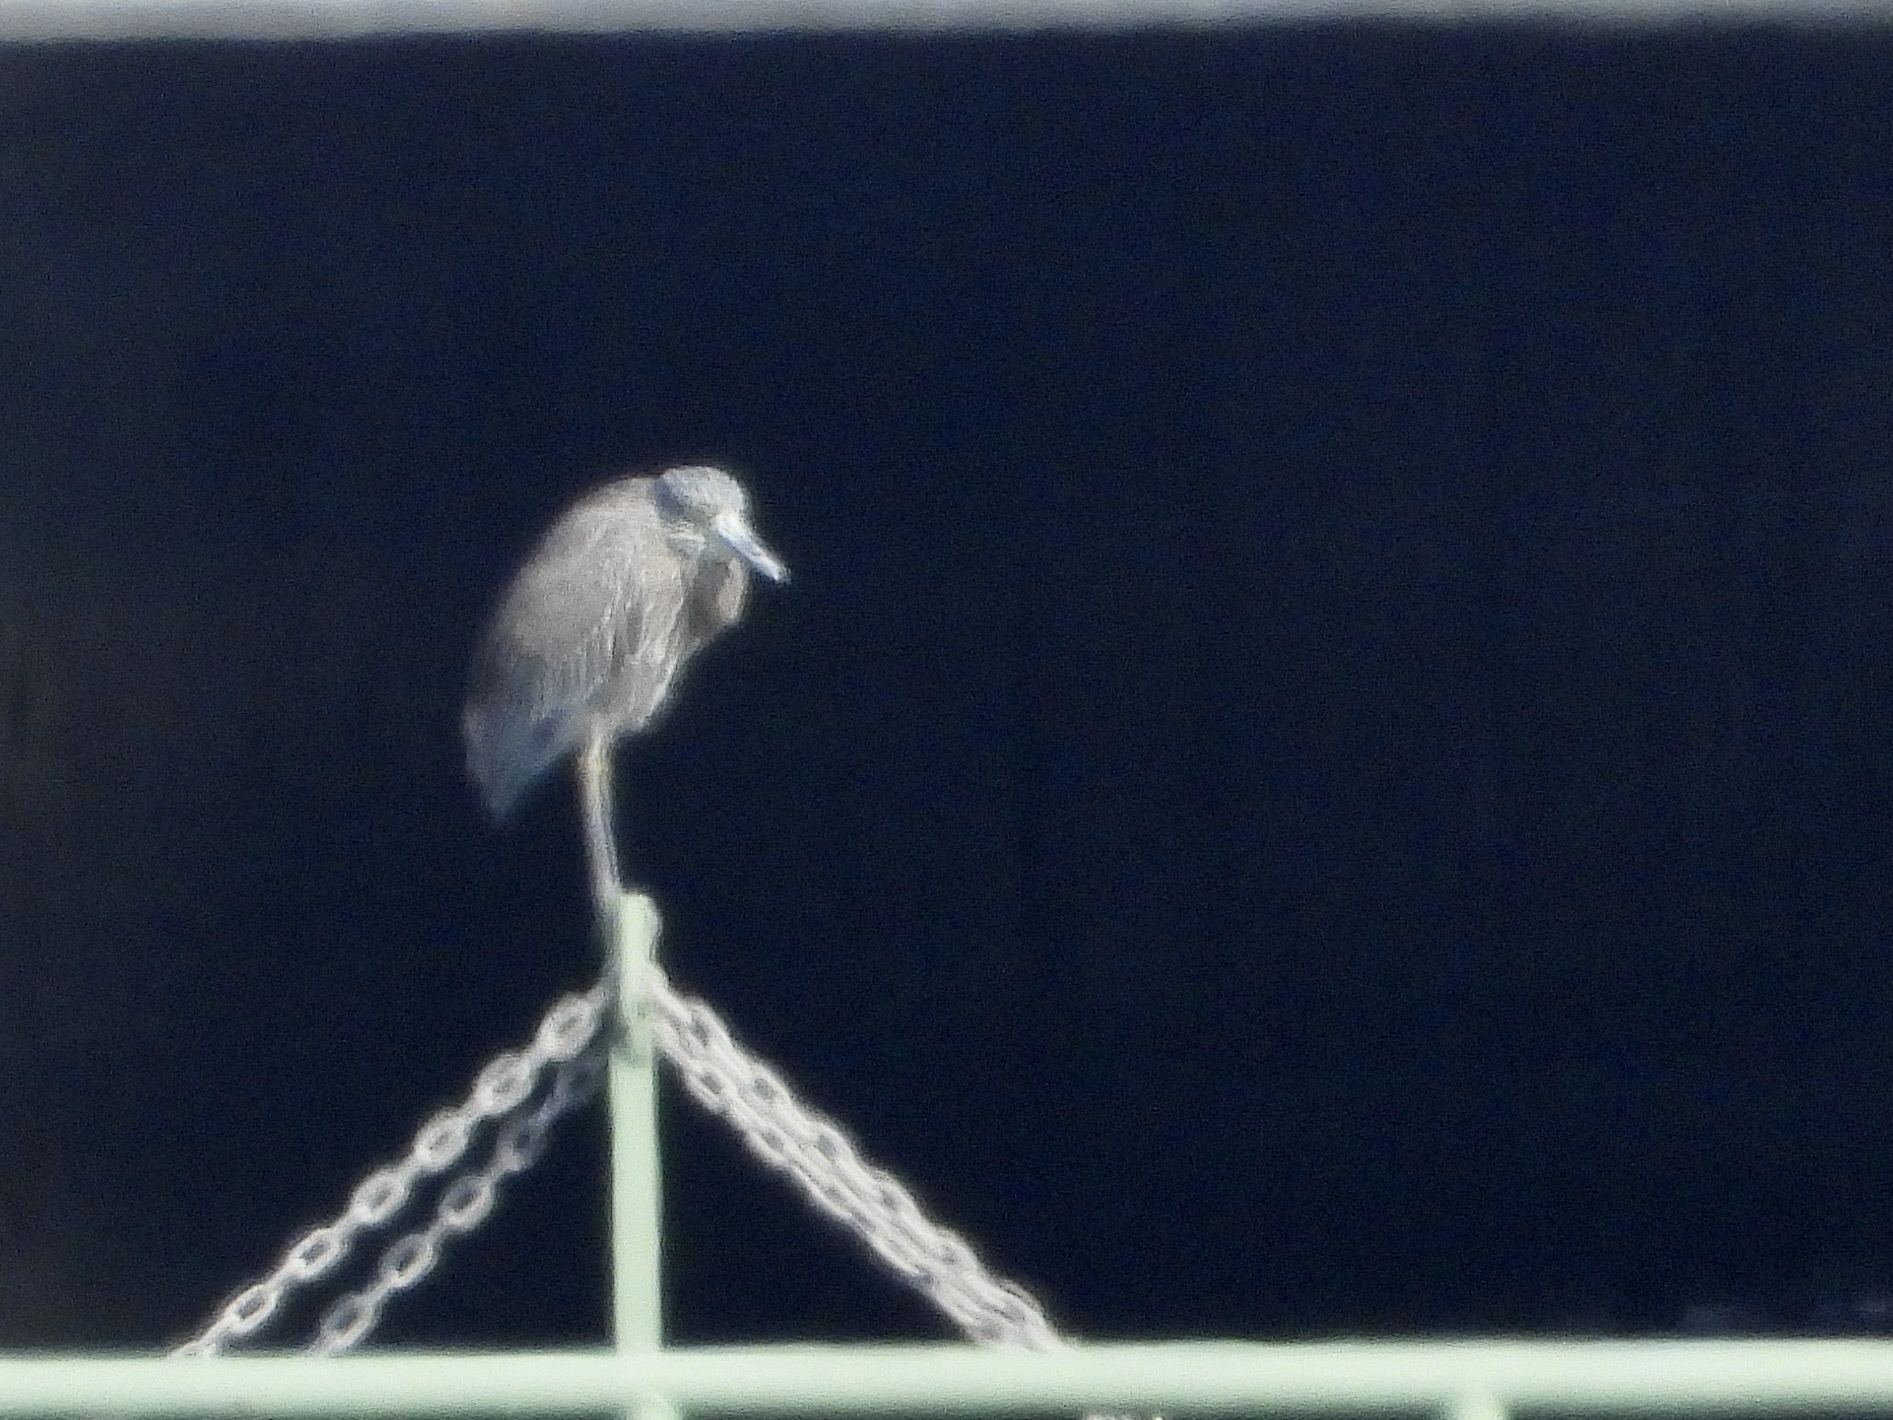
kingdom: Animalia
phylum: Chordata
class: Aves
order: Pelecaniformes
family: Ardeidae
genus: Nyctanassa
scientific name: Nyctanassa violacea
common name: Yellow-crowned night heron
